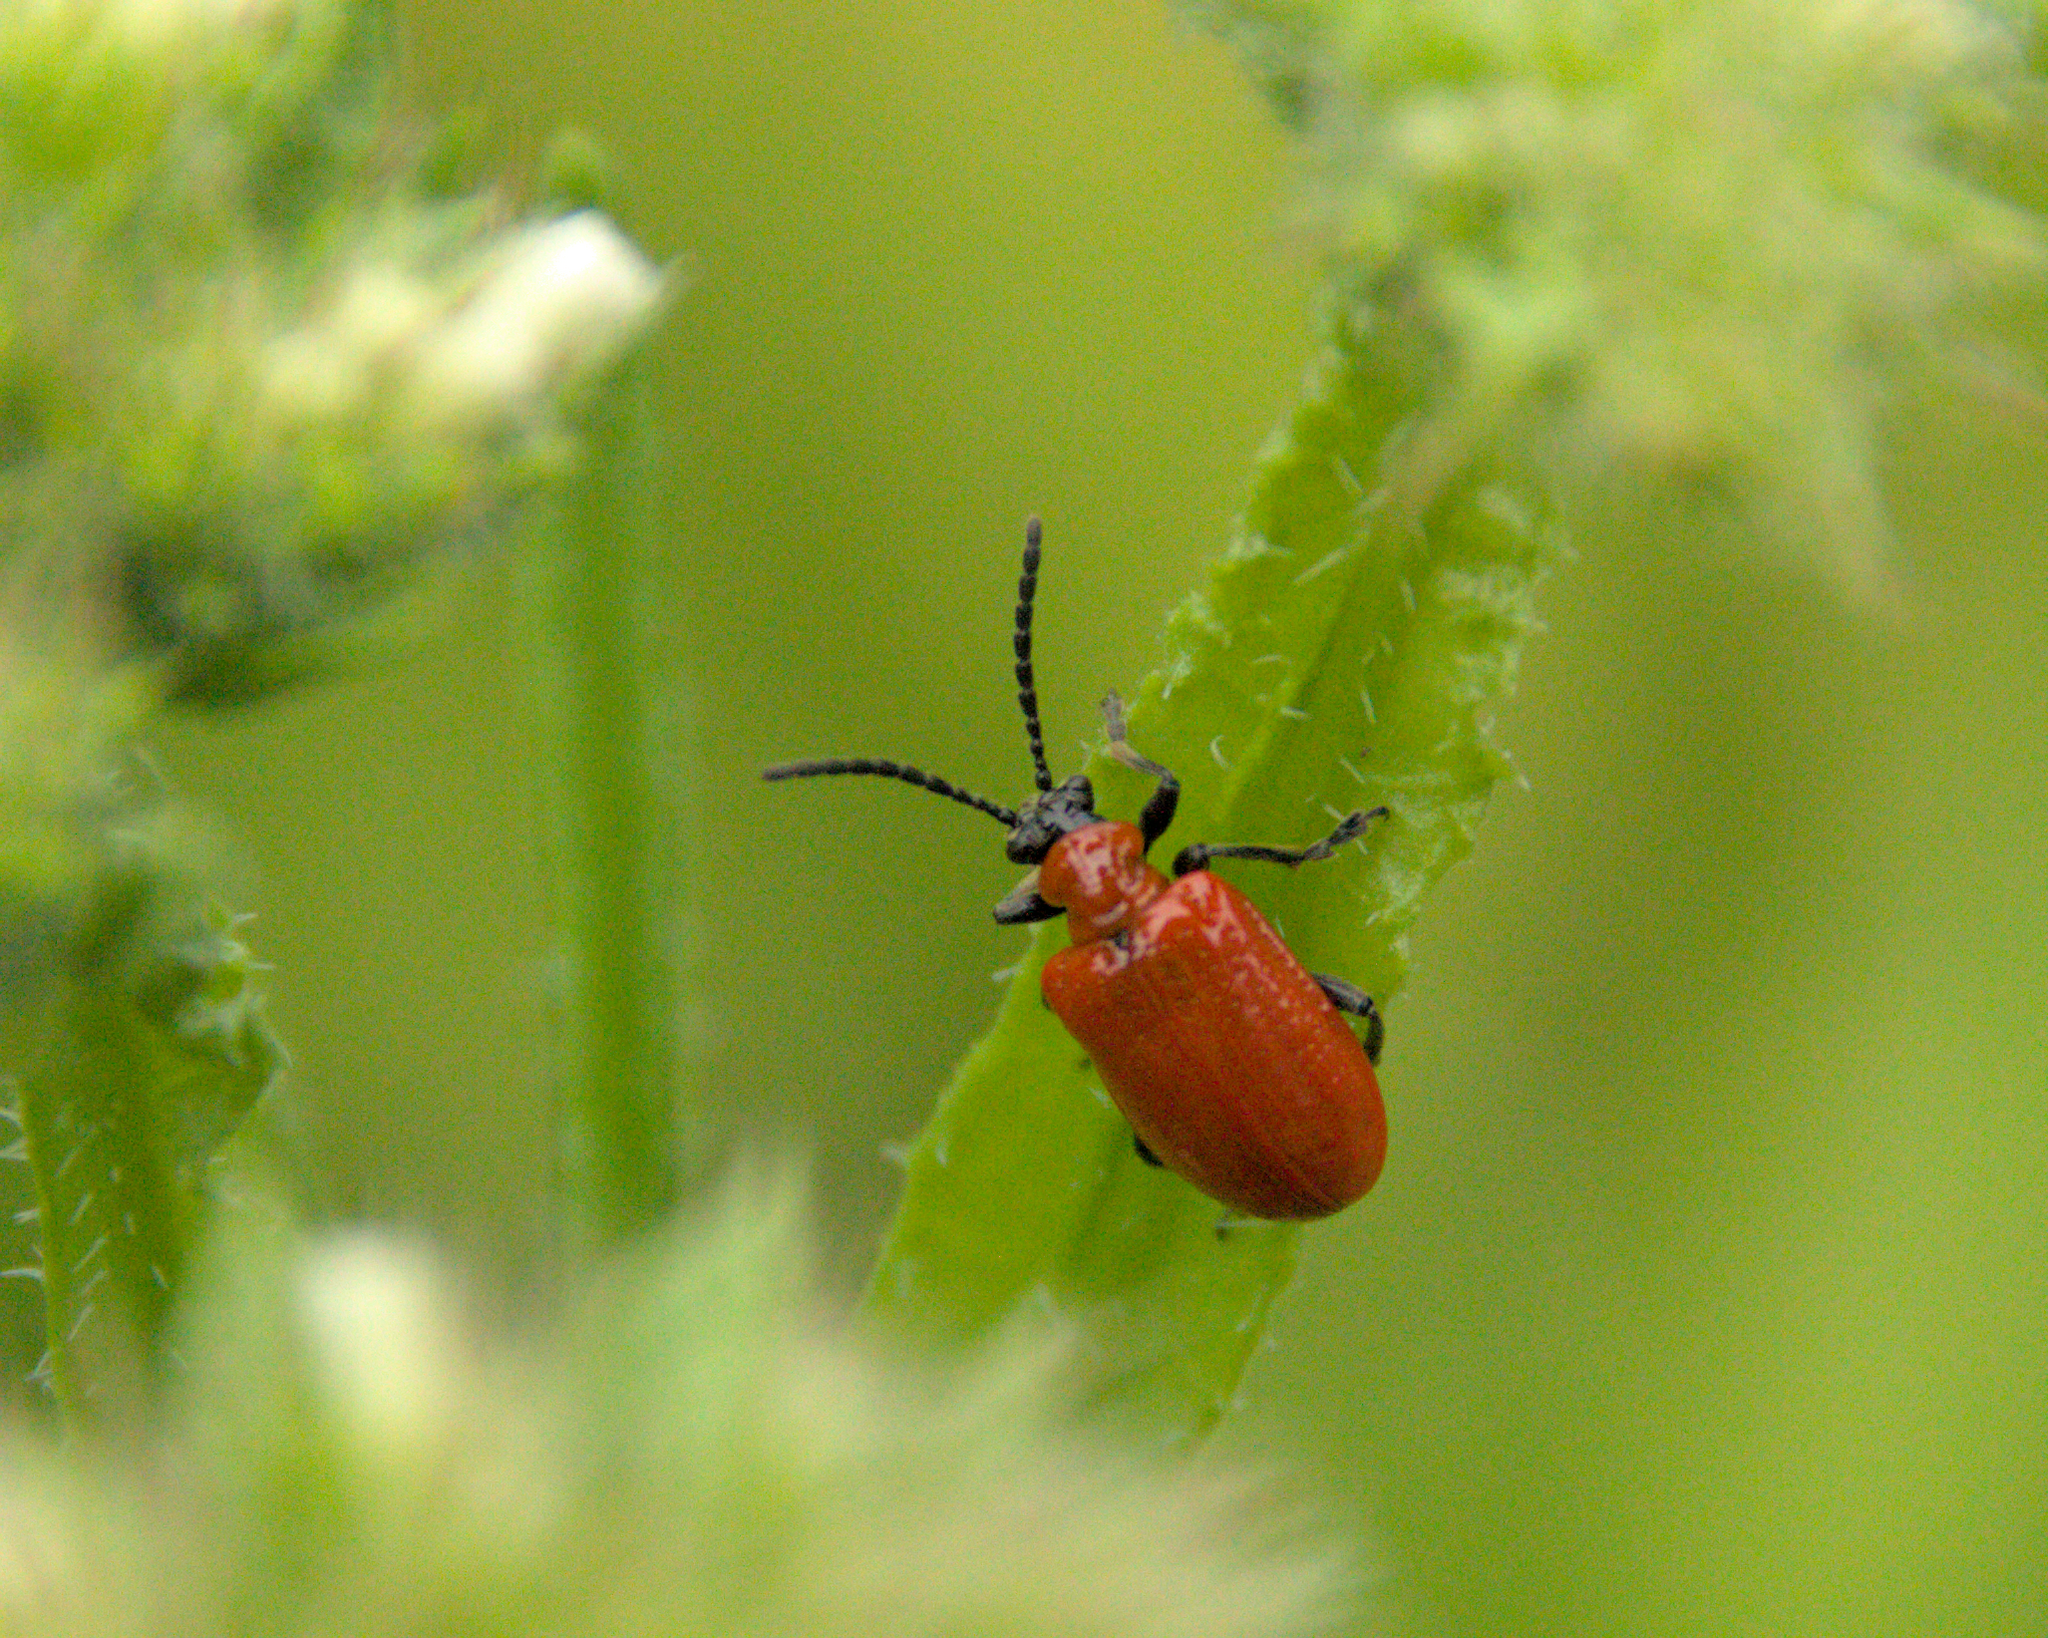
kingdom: Animalia
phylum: Arthropoda
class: Insecta
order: Coleoptera
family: Chrysomelidae
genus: Lilioceris
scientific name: Lilioceris lilii
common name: Lily beetle
